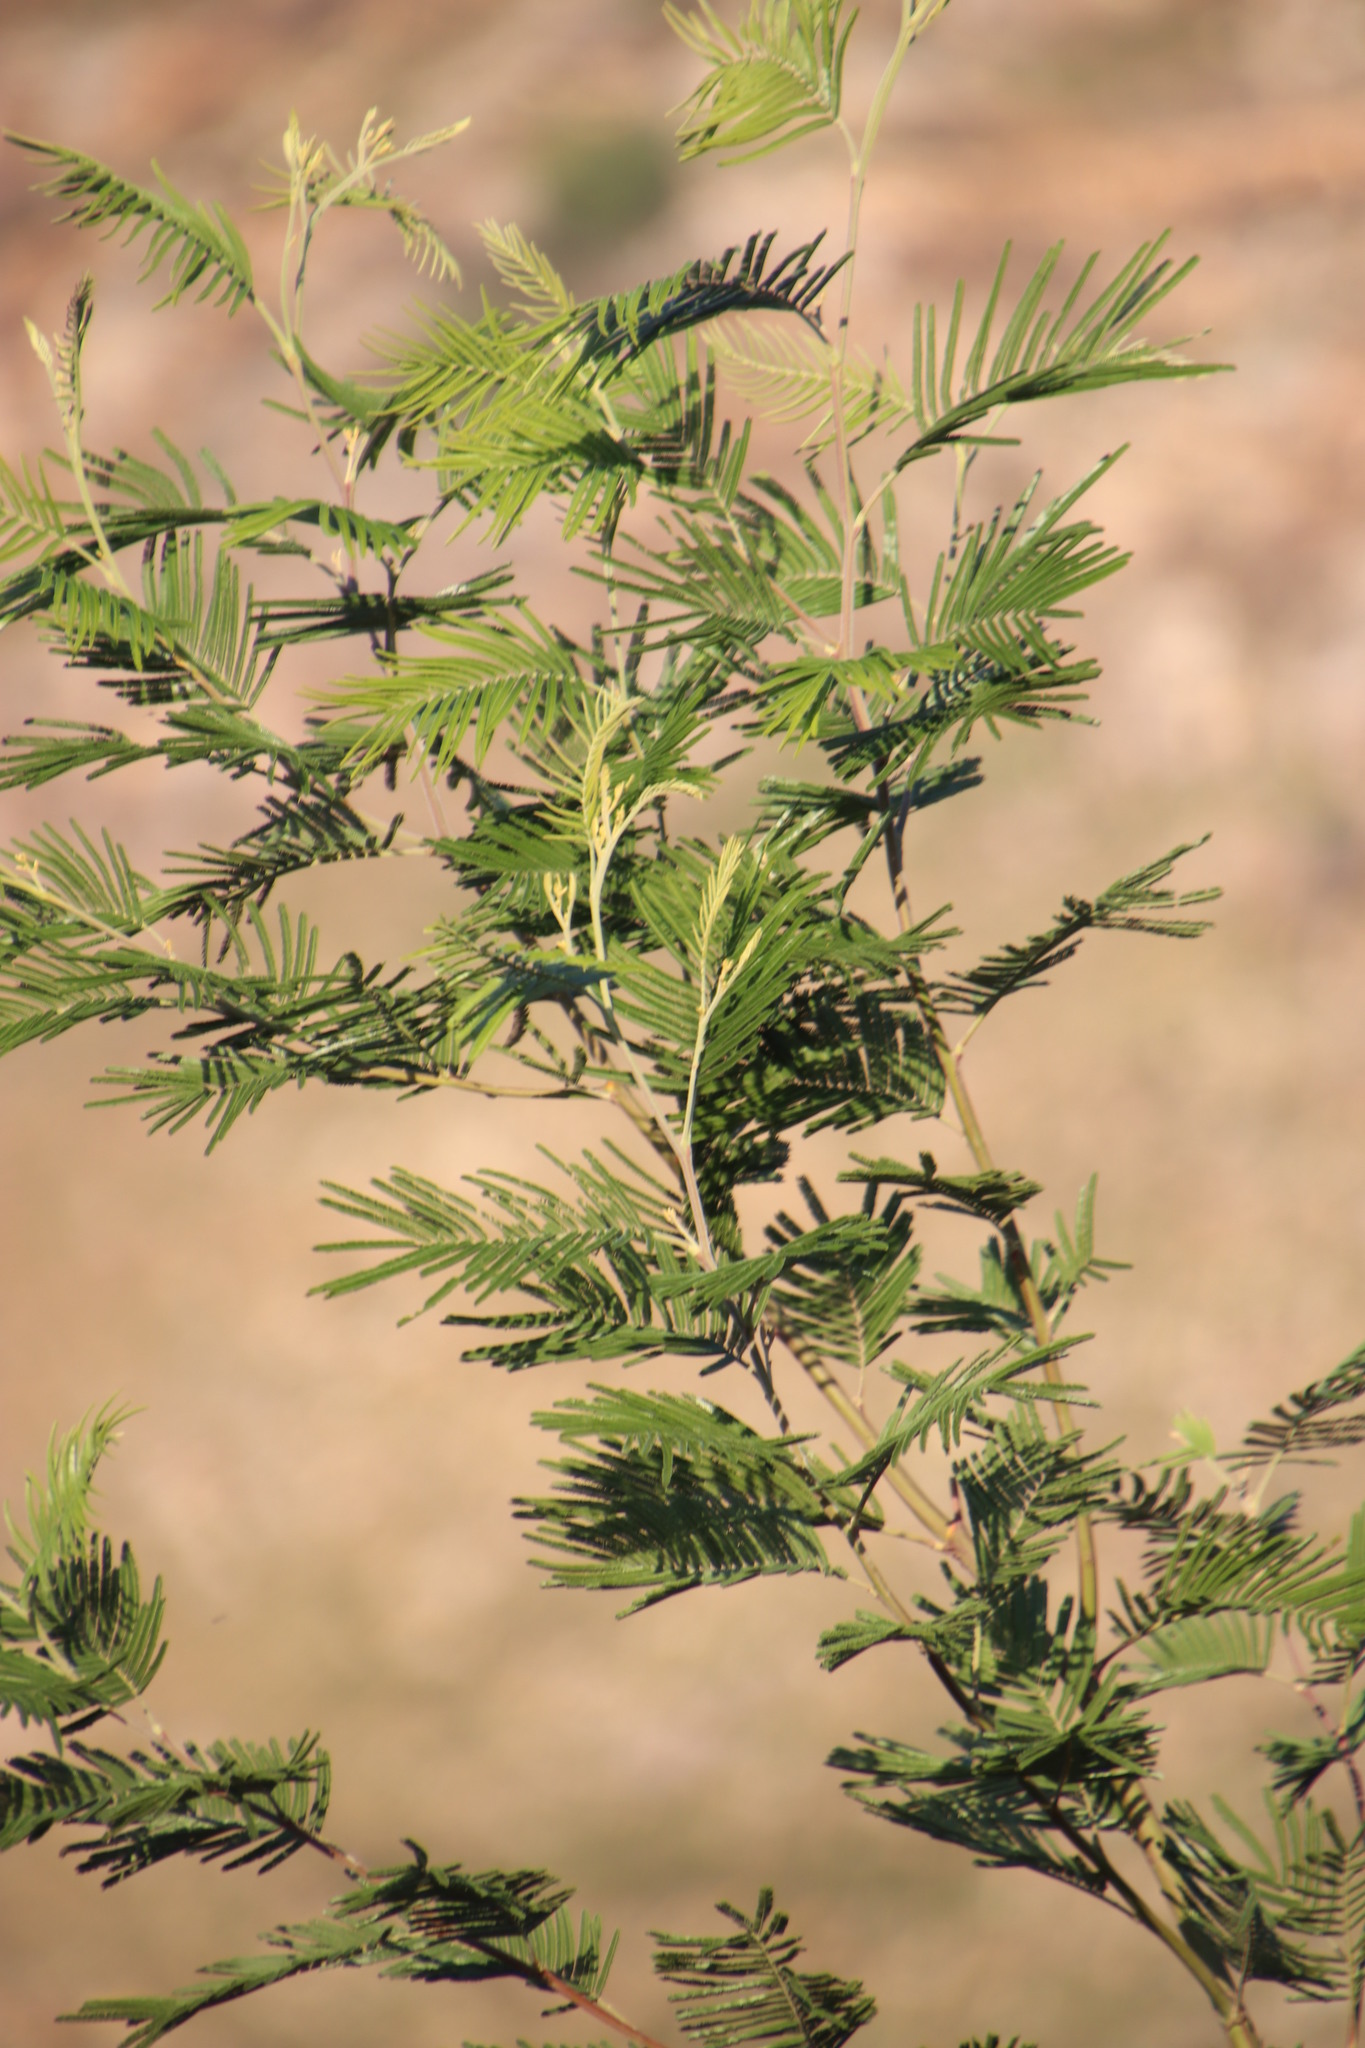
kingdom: Plantae
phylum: Tracheophyta
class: Magnoliopsida
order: Fabales
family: Fabaceae
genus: Acacia
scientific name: Acacia mearnsii
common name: Black wattle
